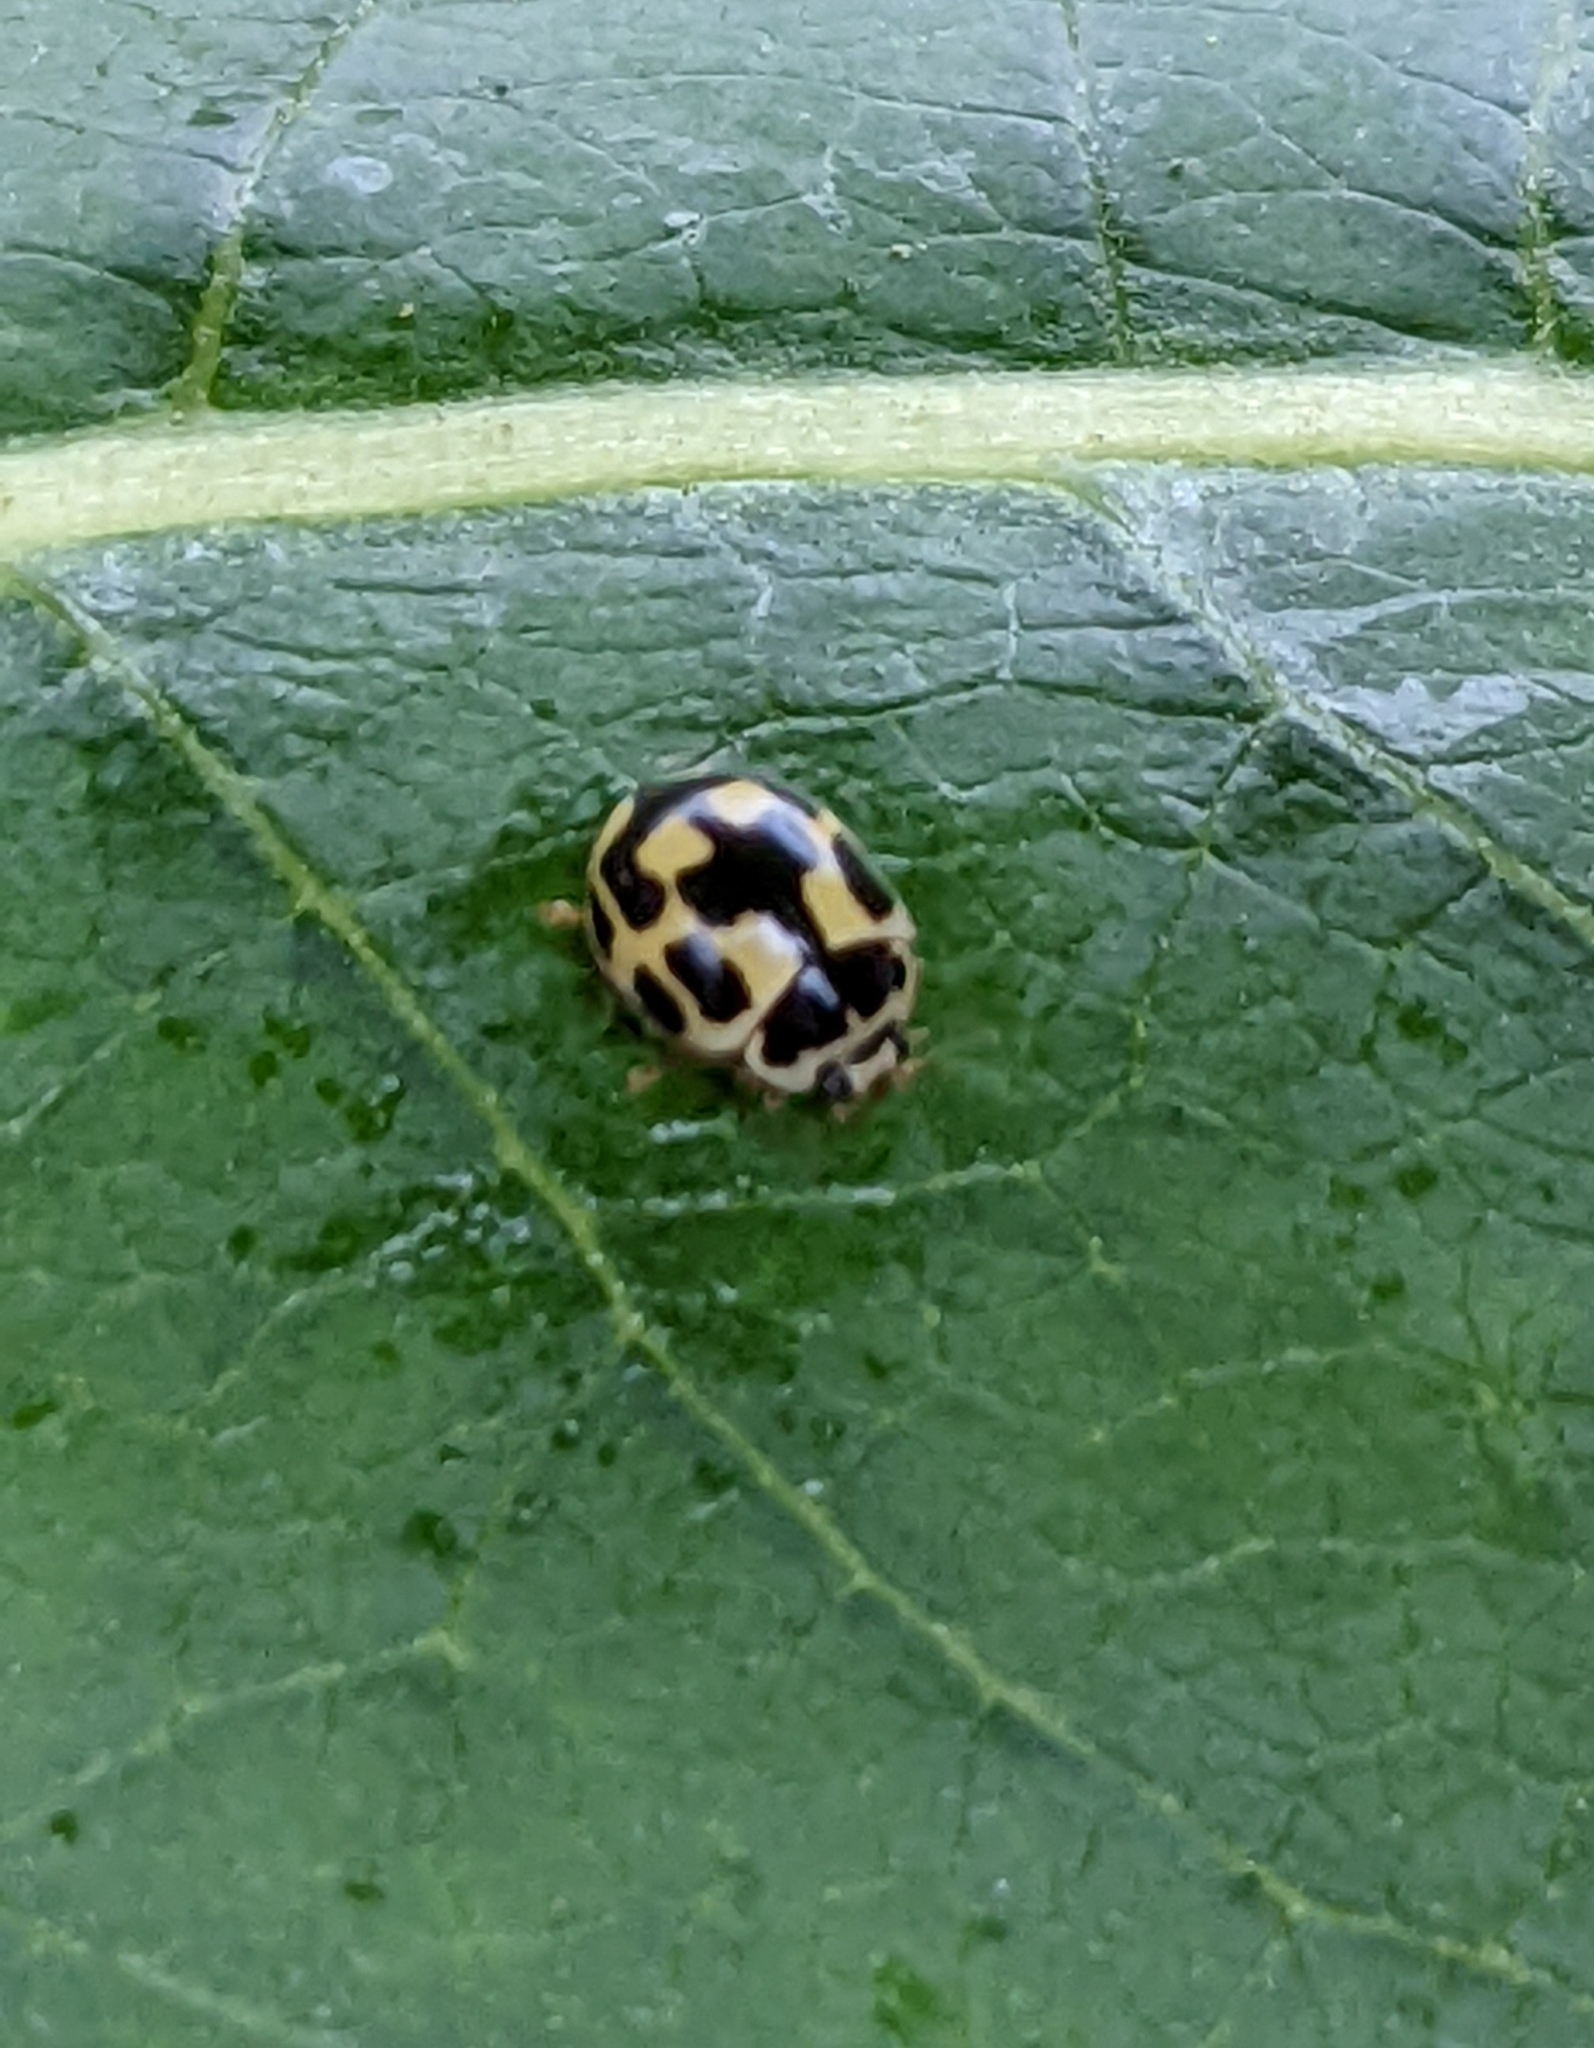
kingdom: Animalia
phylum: Arthropoda
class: Insecta
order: Coleoptera
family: Coccinellidae
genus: Propylaea
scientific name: Propylaea quatuordecimpunctata
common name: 14-spotted ladybird beetle
